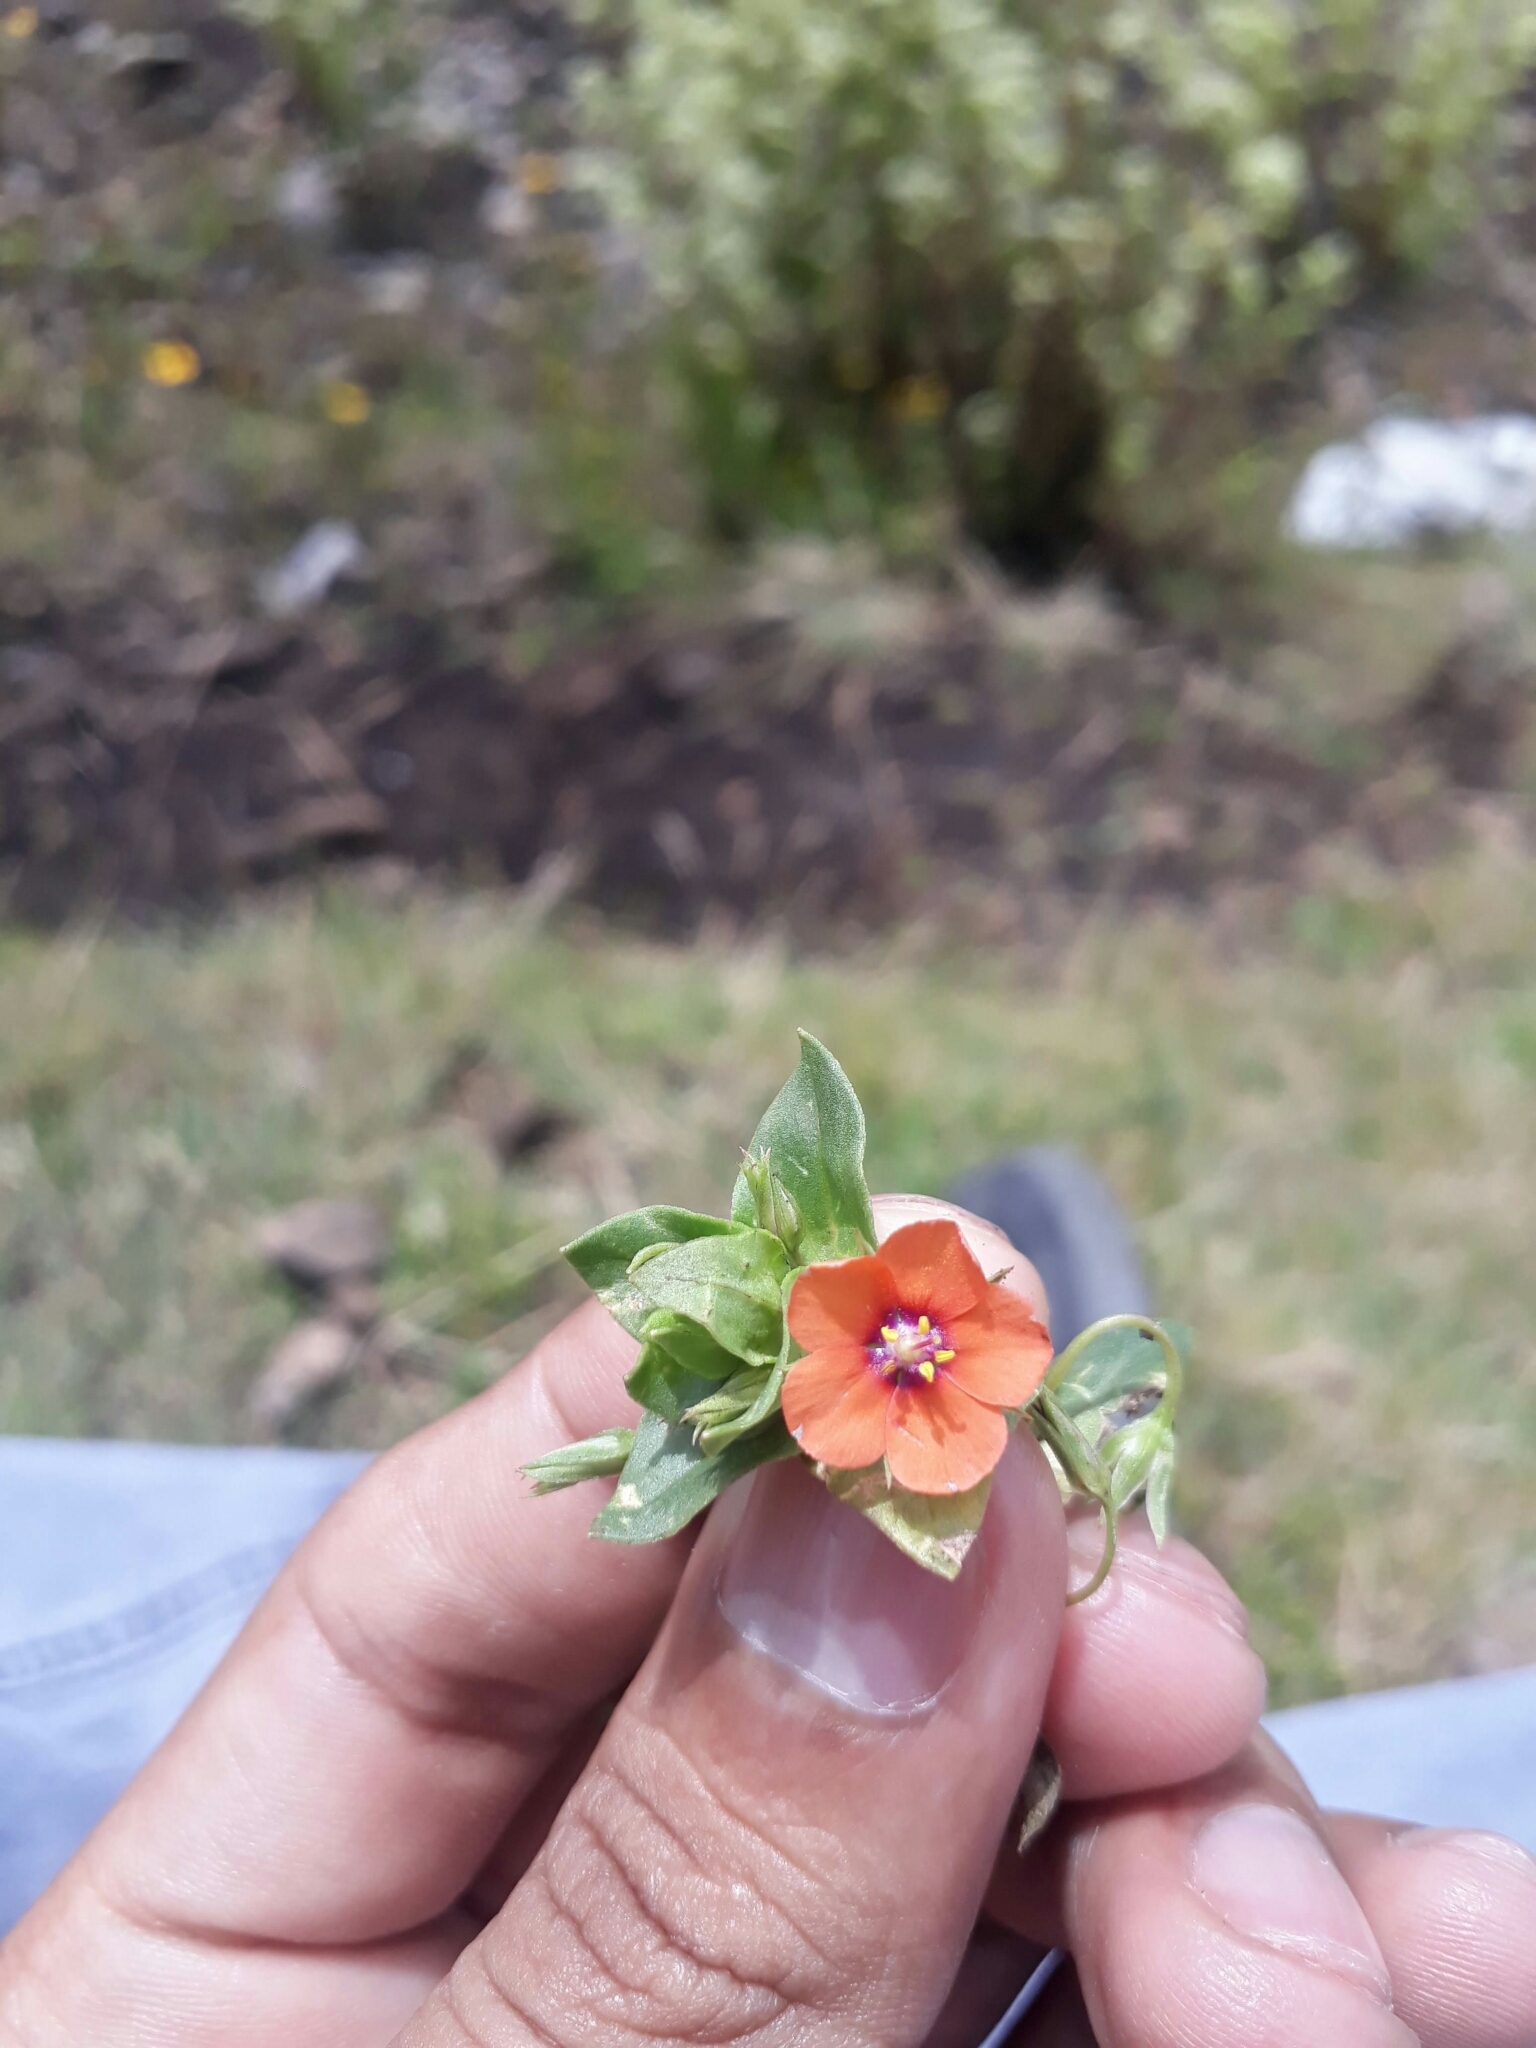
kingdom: Plantae
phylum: Tracheophyta
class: Magnoliopsida
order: Ericales
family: Primulaceae
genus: Lysimachia
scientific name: Lysimachia arvensis
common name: Scarlet pimpernel
